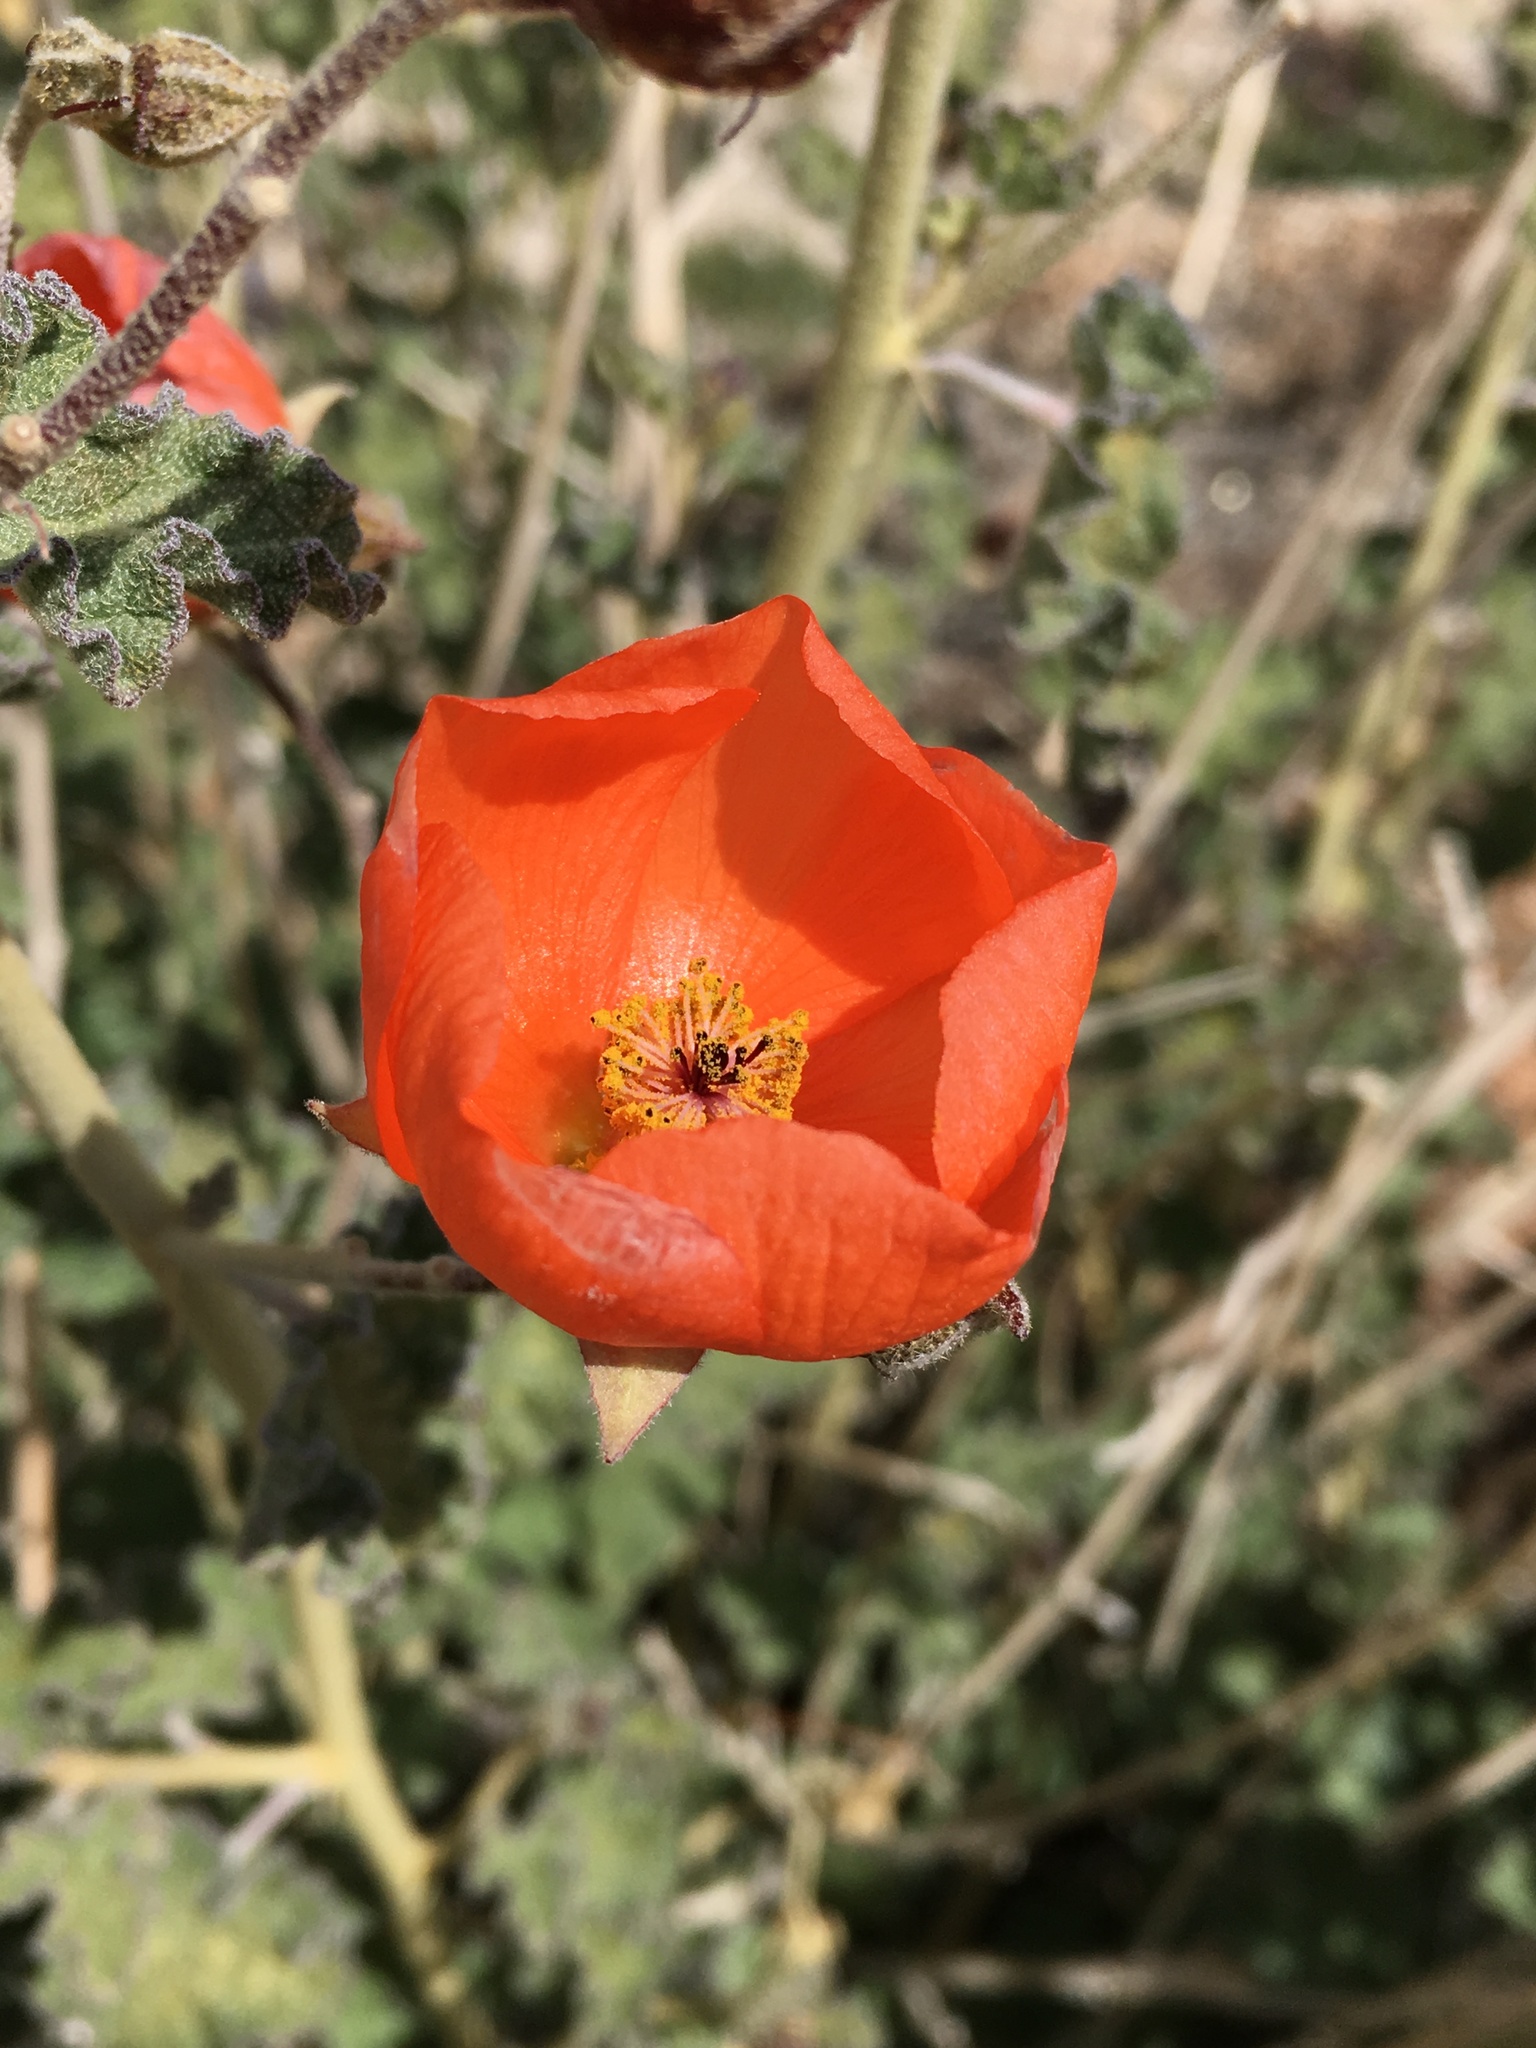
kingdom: Plantae
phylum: Tracheophyta
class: Magnoliopsida
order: Malvales
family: Malvaceae
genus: Sphaeralcea
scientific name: Sphaeralcea ambigua
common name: Apricot globe-mallow
